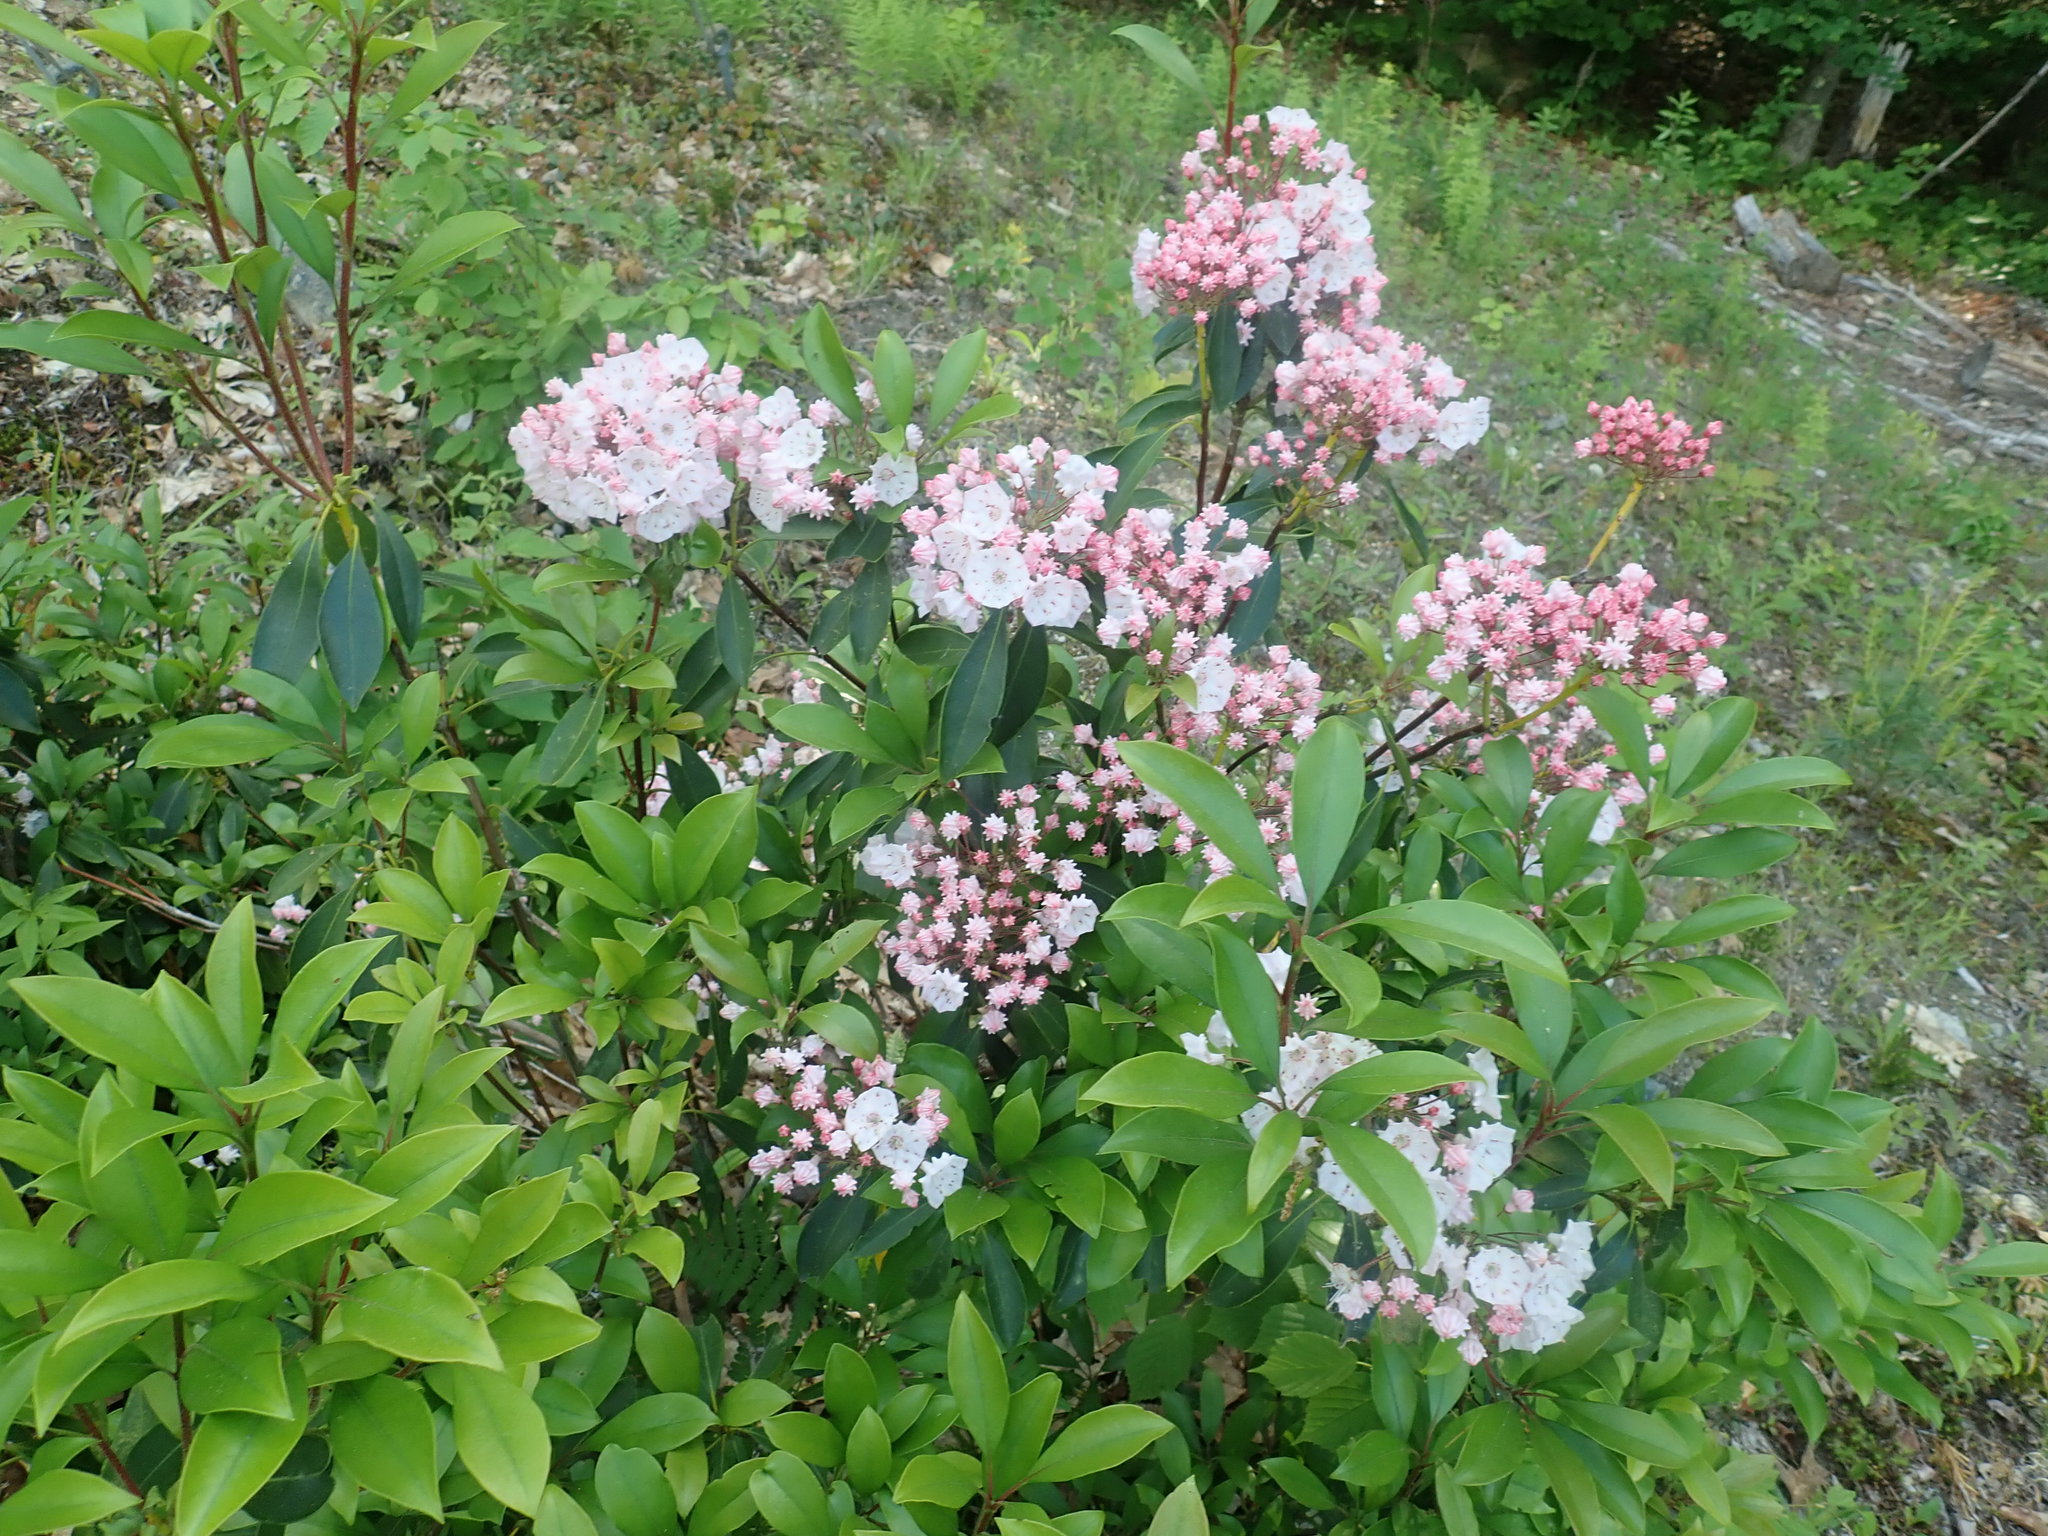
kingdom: Plantae
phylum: Tracheophyta
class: Magnoliopsida
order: Ericales
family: Ericaceae
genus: Kalmia
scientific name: Kalmia latifolia
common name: Mountain-laurel
